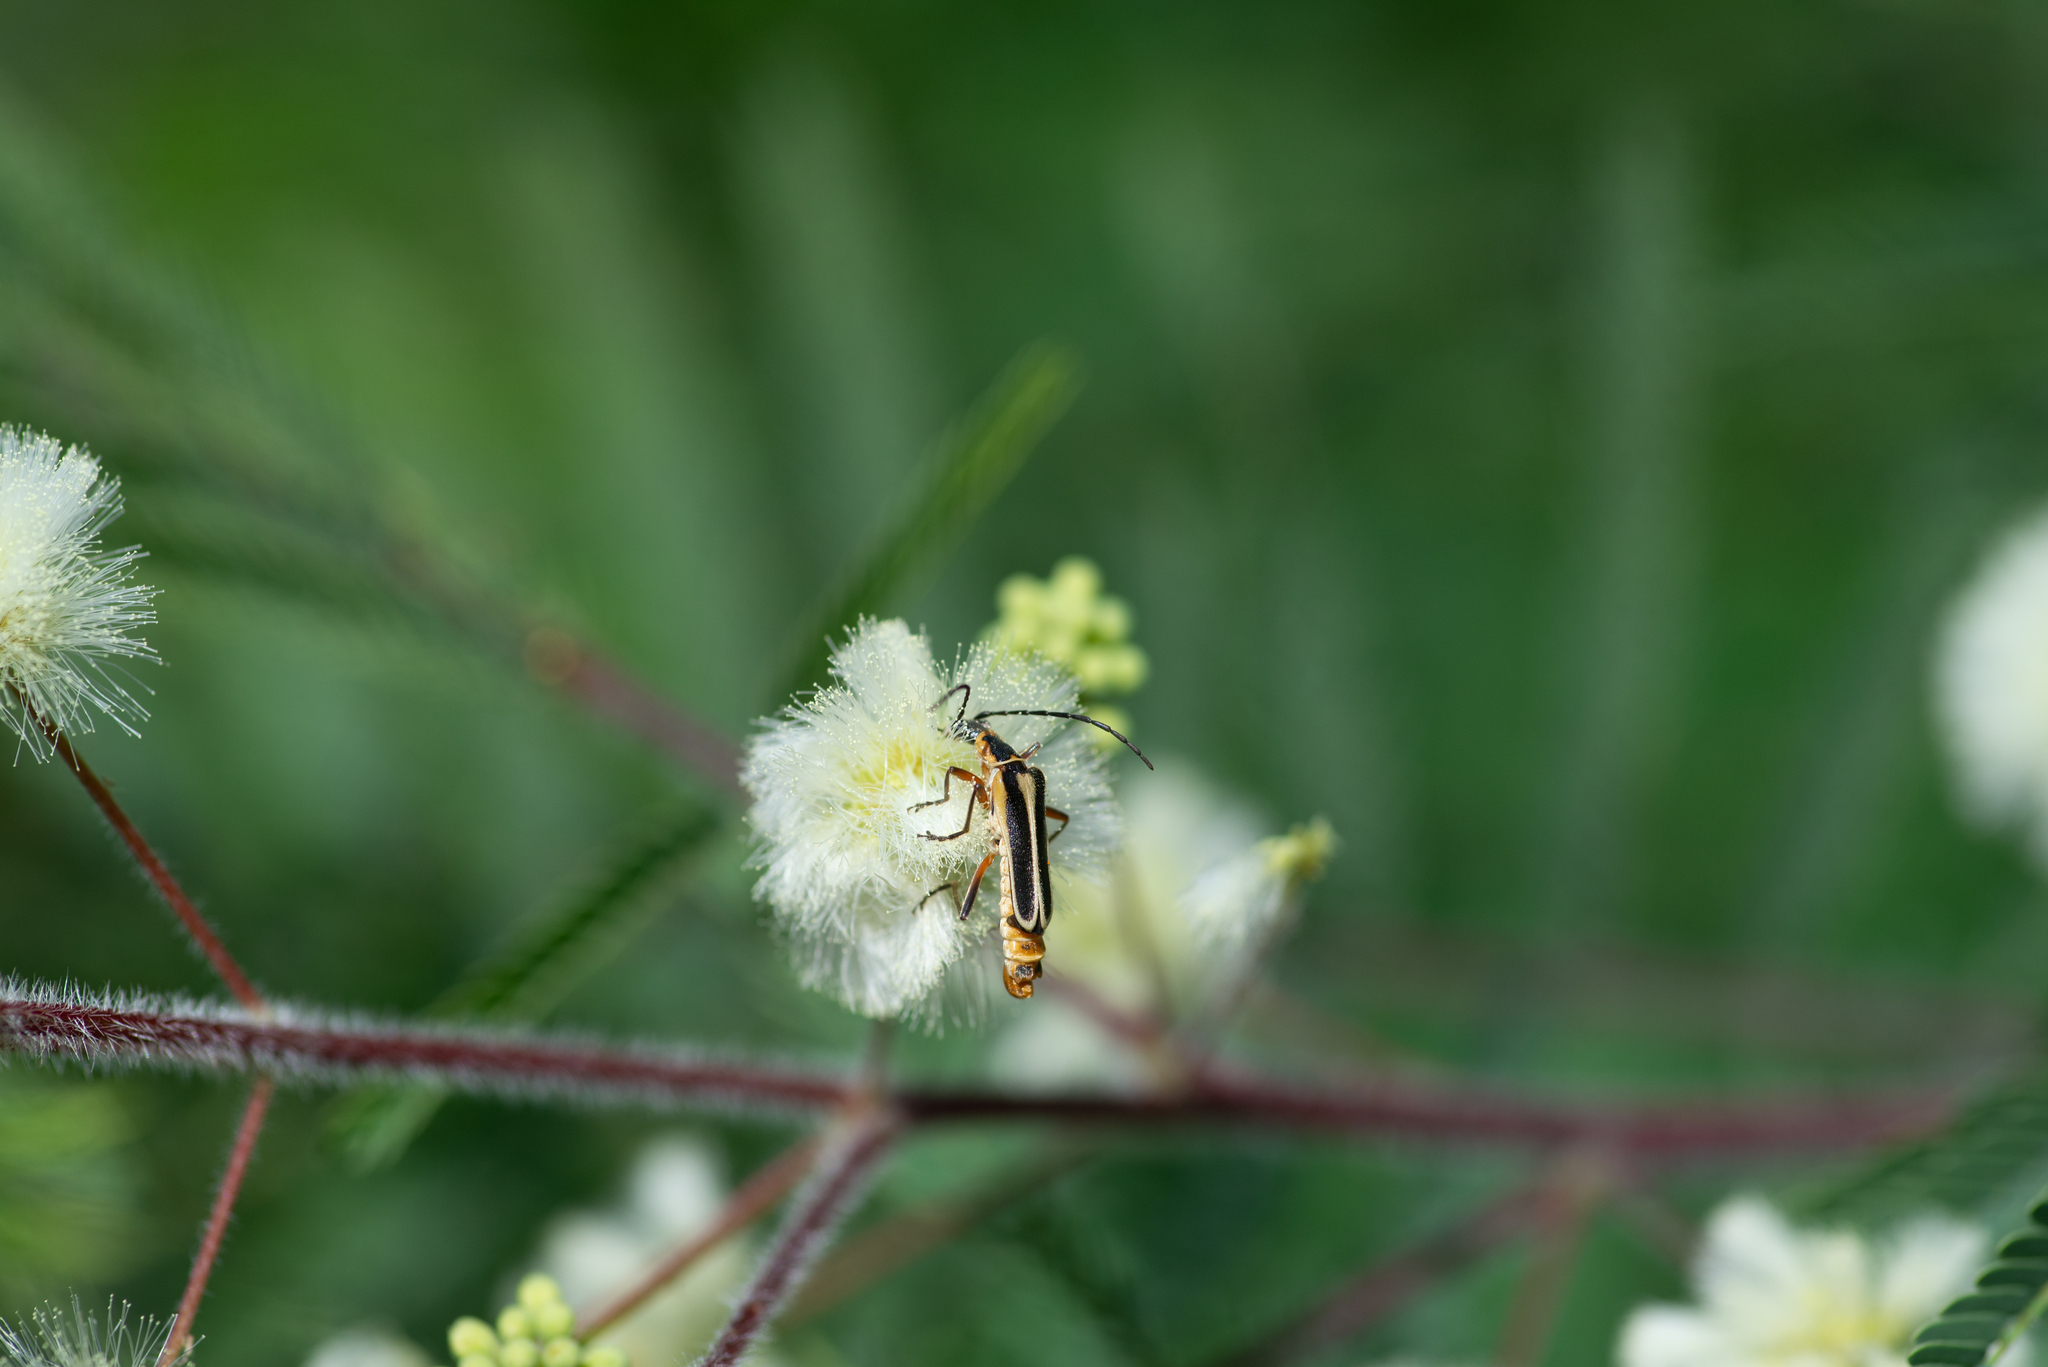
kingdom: Animalia
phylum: Arthropoda
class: Insecta
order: Coleoptera
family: Cantharidae
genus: Chauliognathus
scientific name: Chauliognathus lewisi
